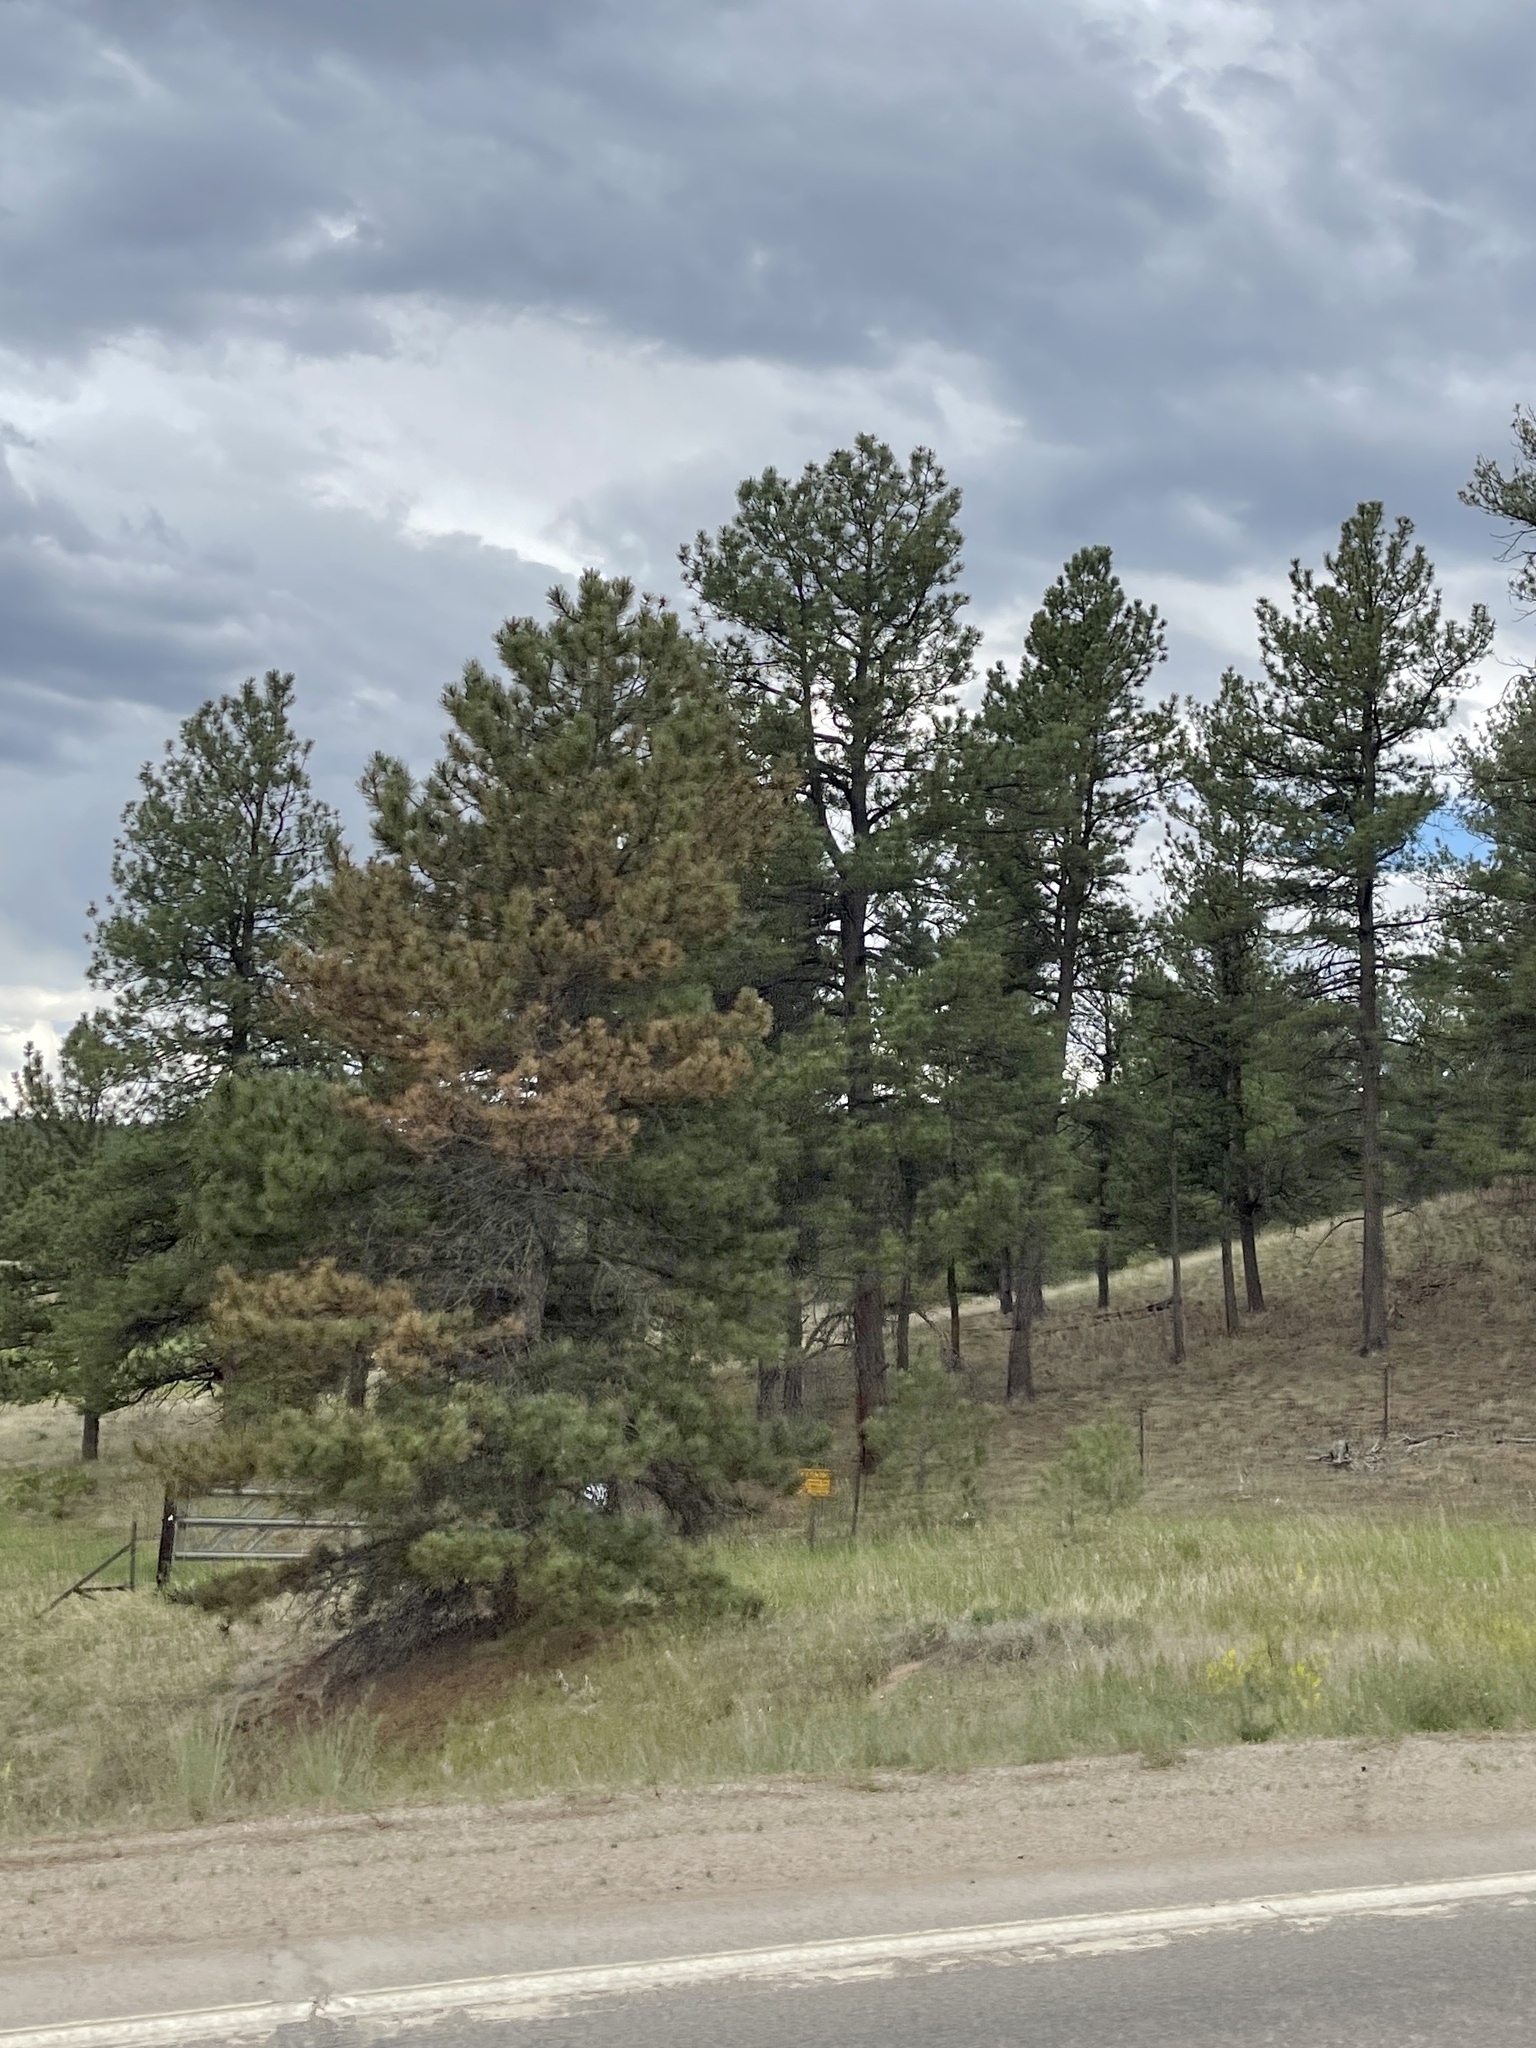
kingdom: Plantae
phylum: Tracheophyta
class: Pinopsida
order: Pinales
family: Pinaceae
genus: Pinus
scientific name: Pinus ponderosa
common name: Western yellow-pine
